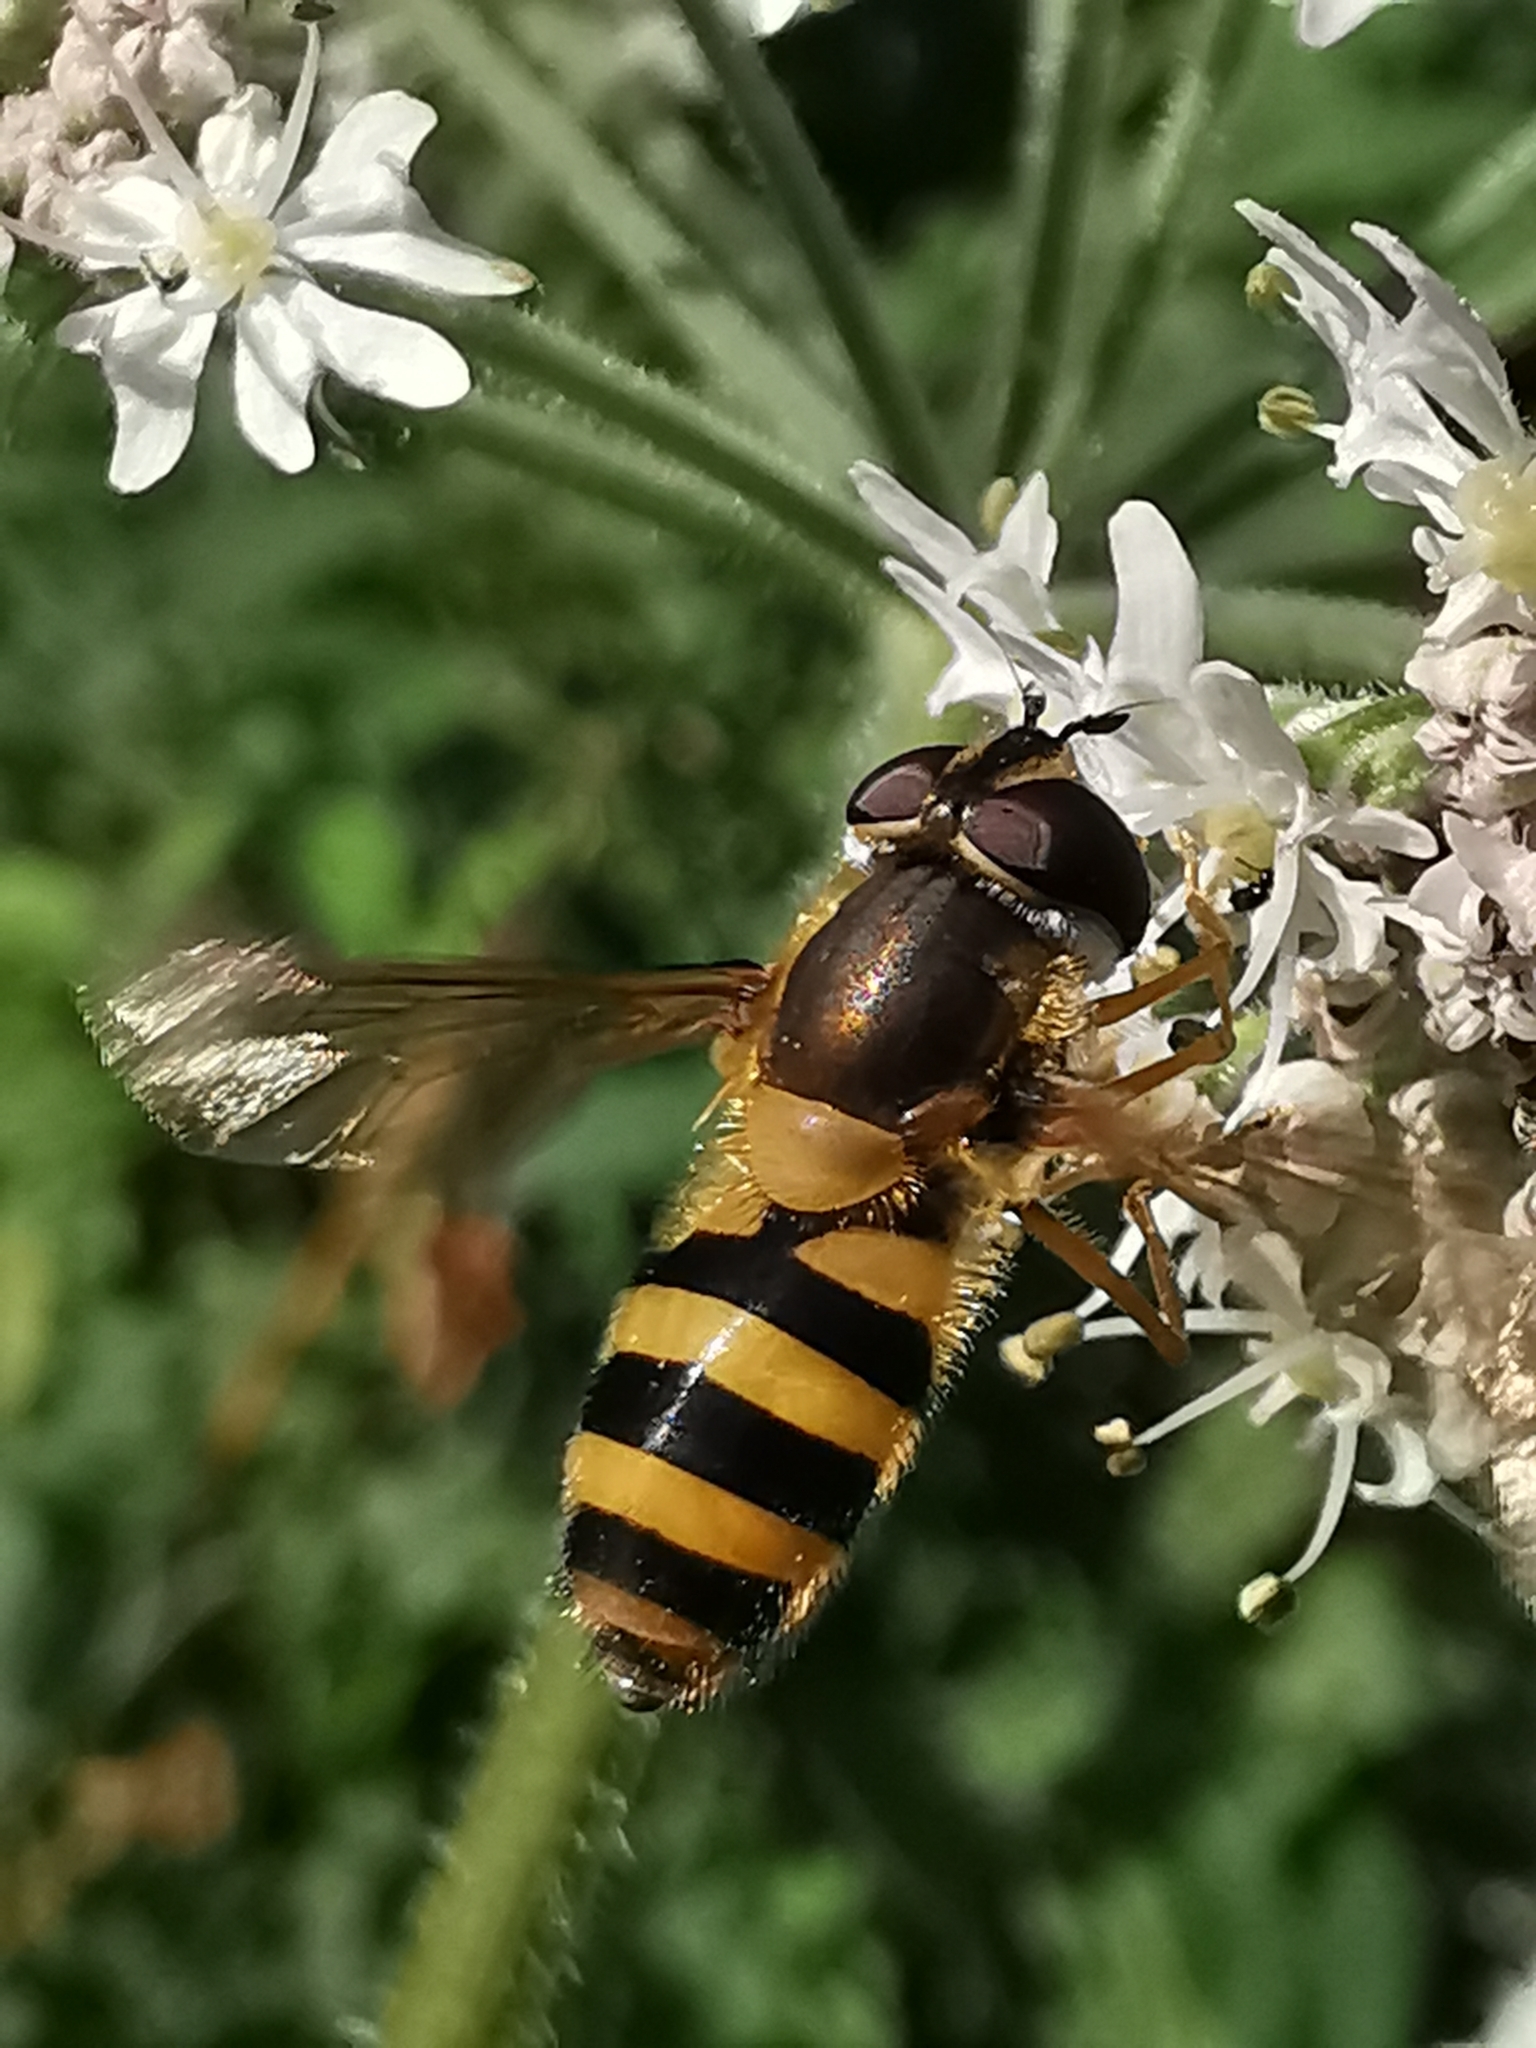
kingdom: Animalia
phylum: Arthropoda
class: Insecta
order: Diptera
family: Syrphidae
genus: Epistrophe
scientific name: Epistrophe grossulariae
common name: Black-horned smoothtail
